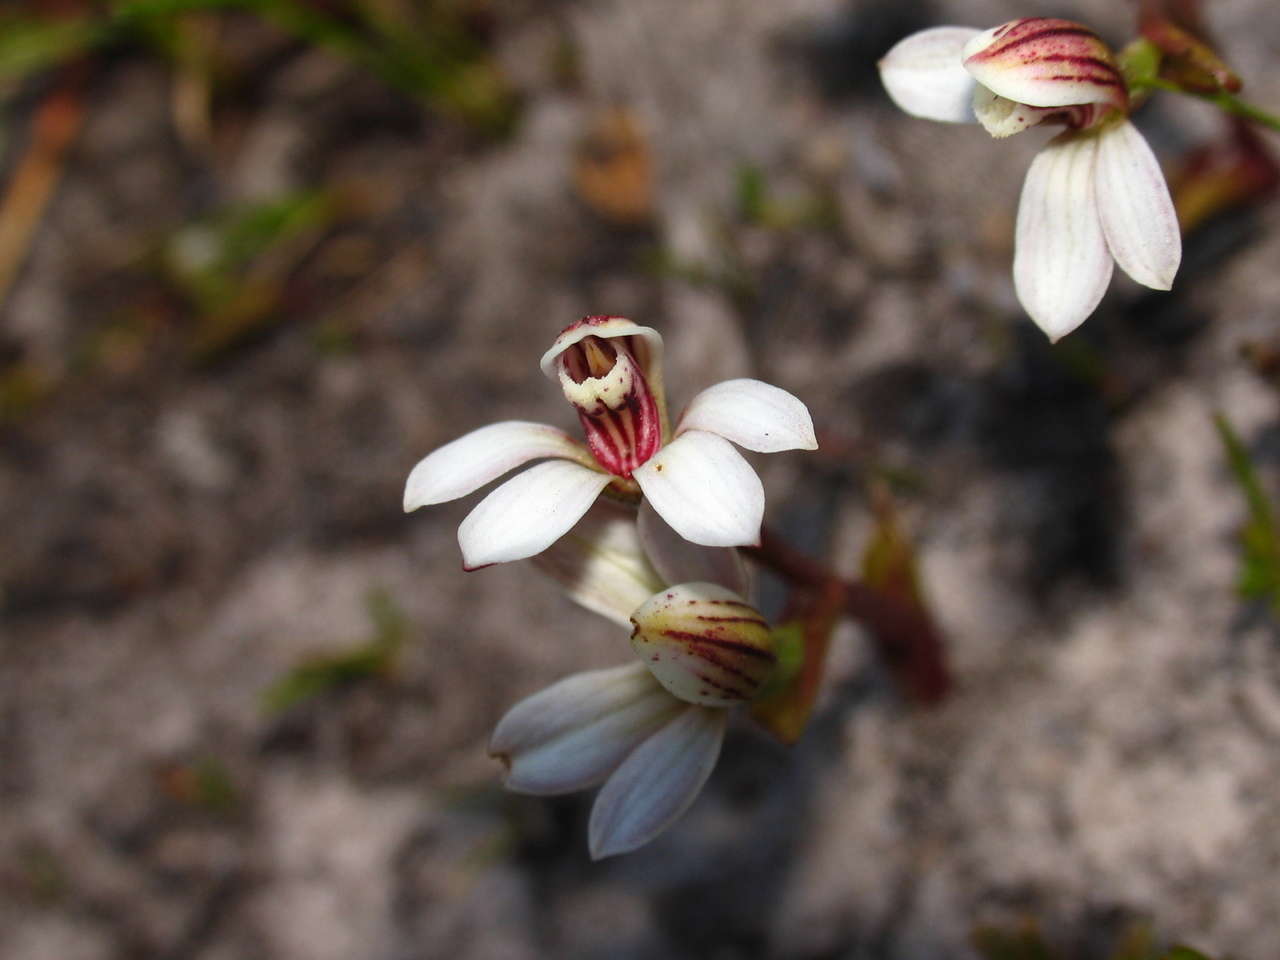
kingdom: Plantae
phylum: Tracheophyta
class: Liliopsida
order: Asparagales
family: Orchidaceae
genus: Burnettia
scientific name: Burnettia cuneata
